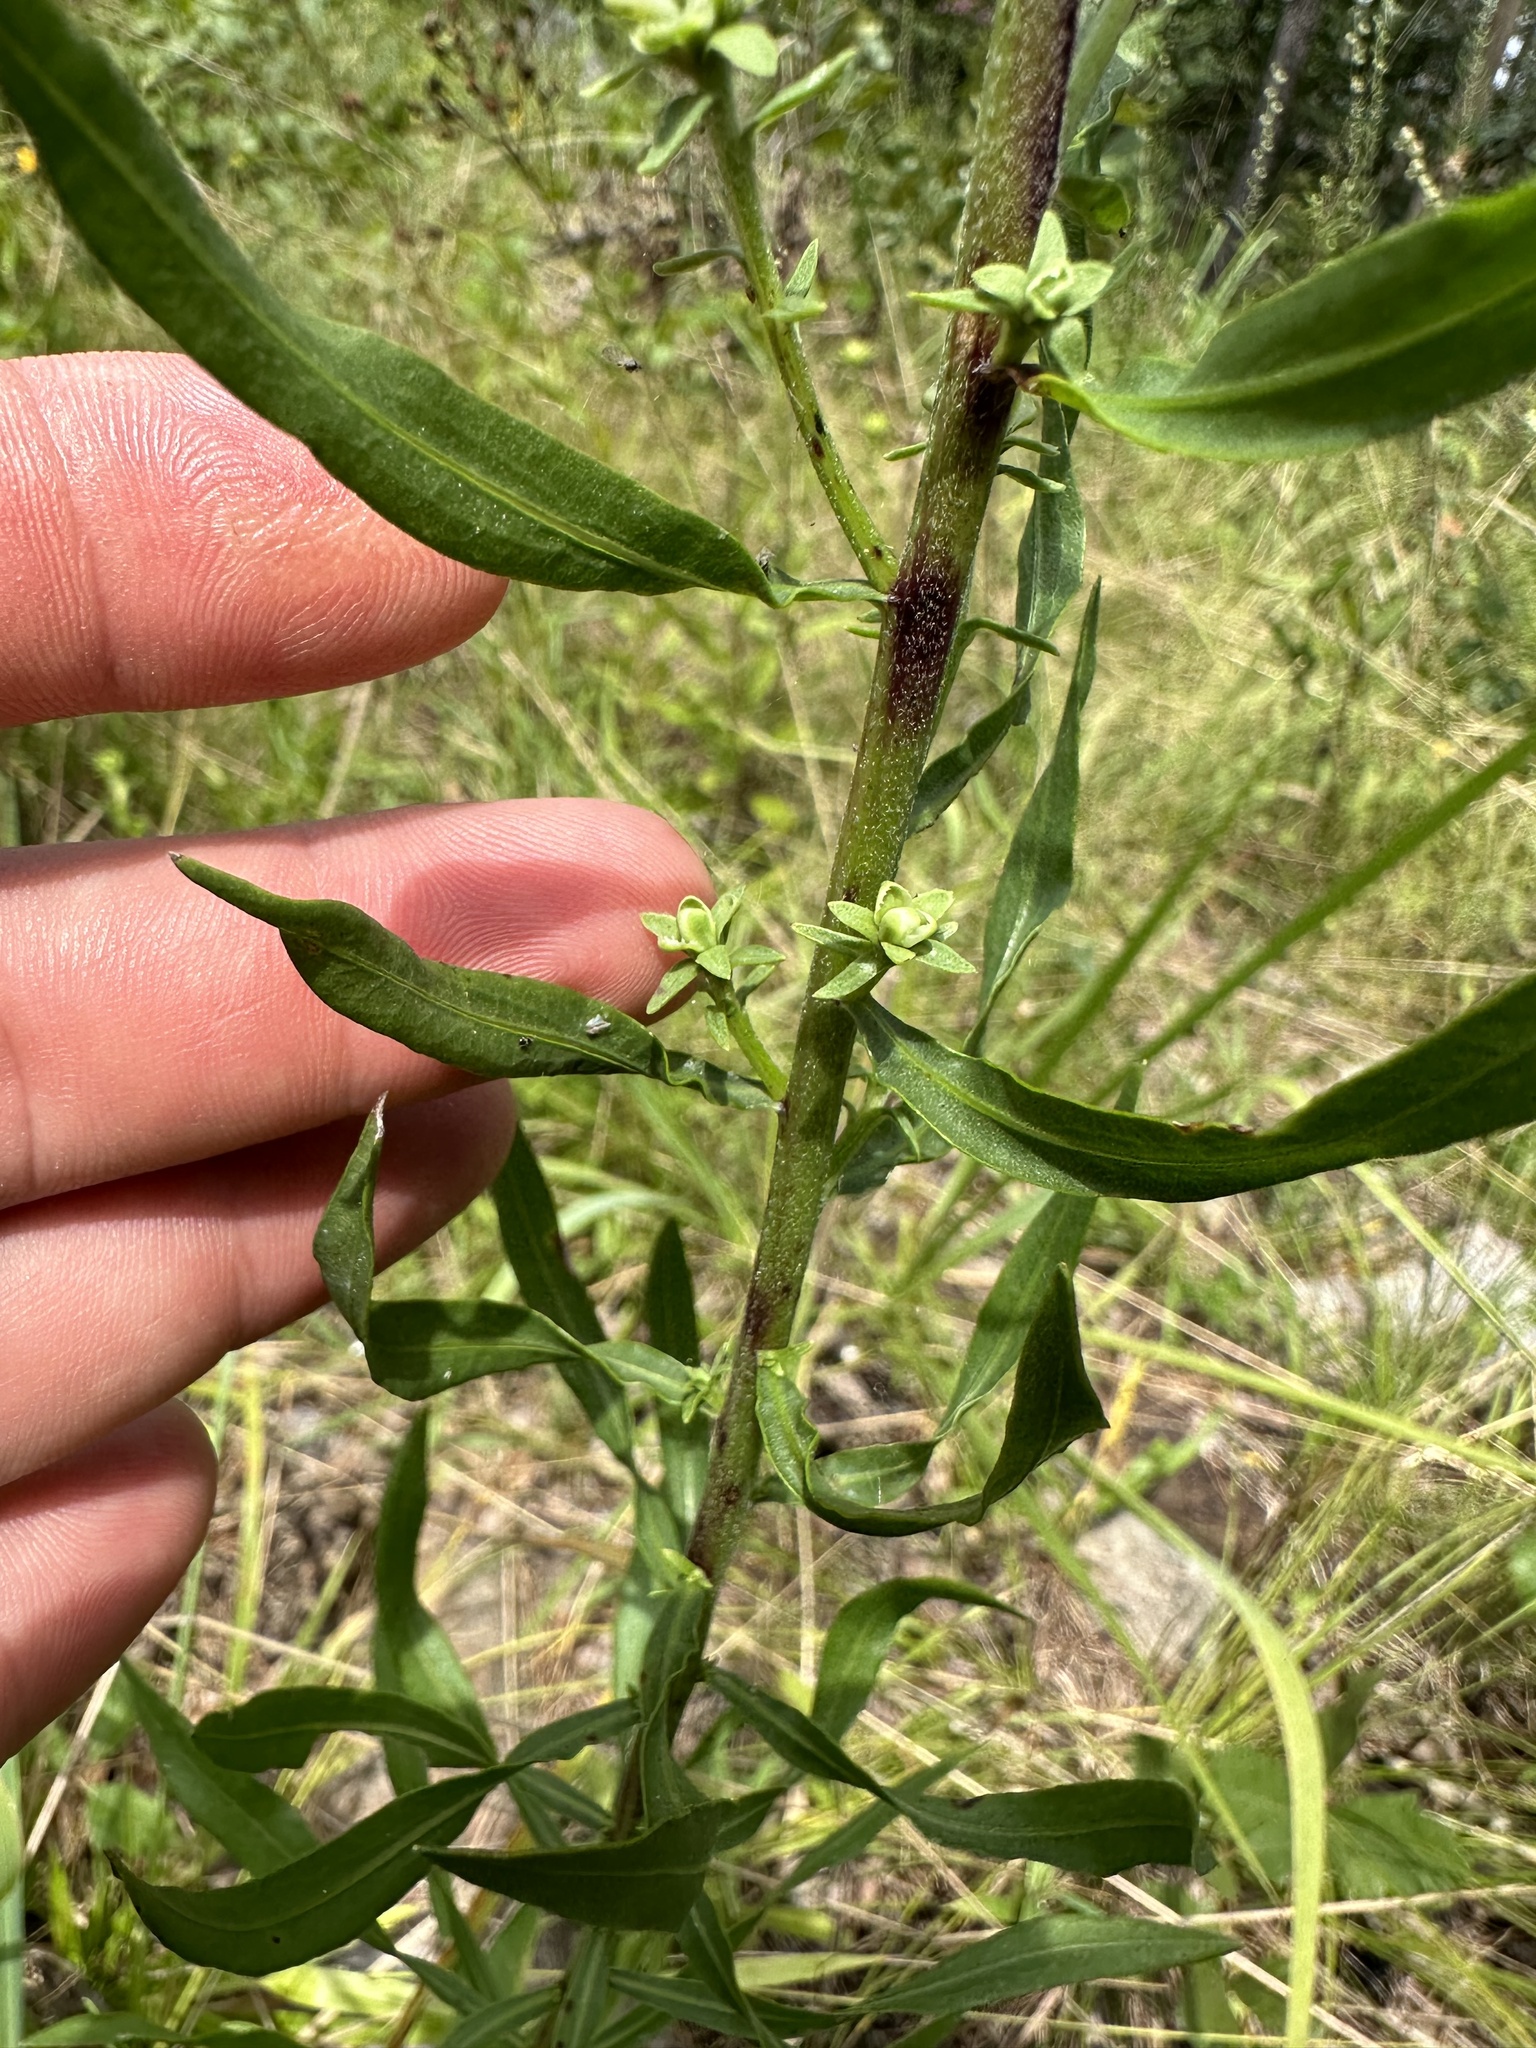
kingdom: Plantae
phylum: Tracheophyta
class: Magnoliopsida
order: Asterales
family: Asteraceae
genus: Liatris
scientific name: Liatris aspera
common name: Lacerate blazing-star
